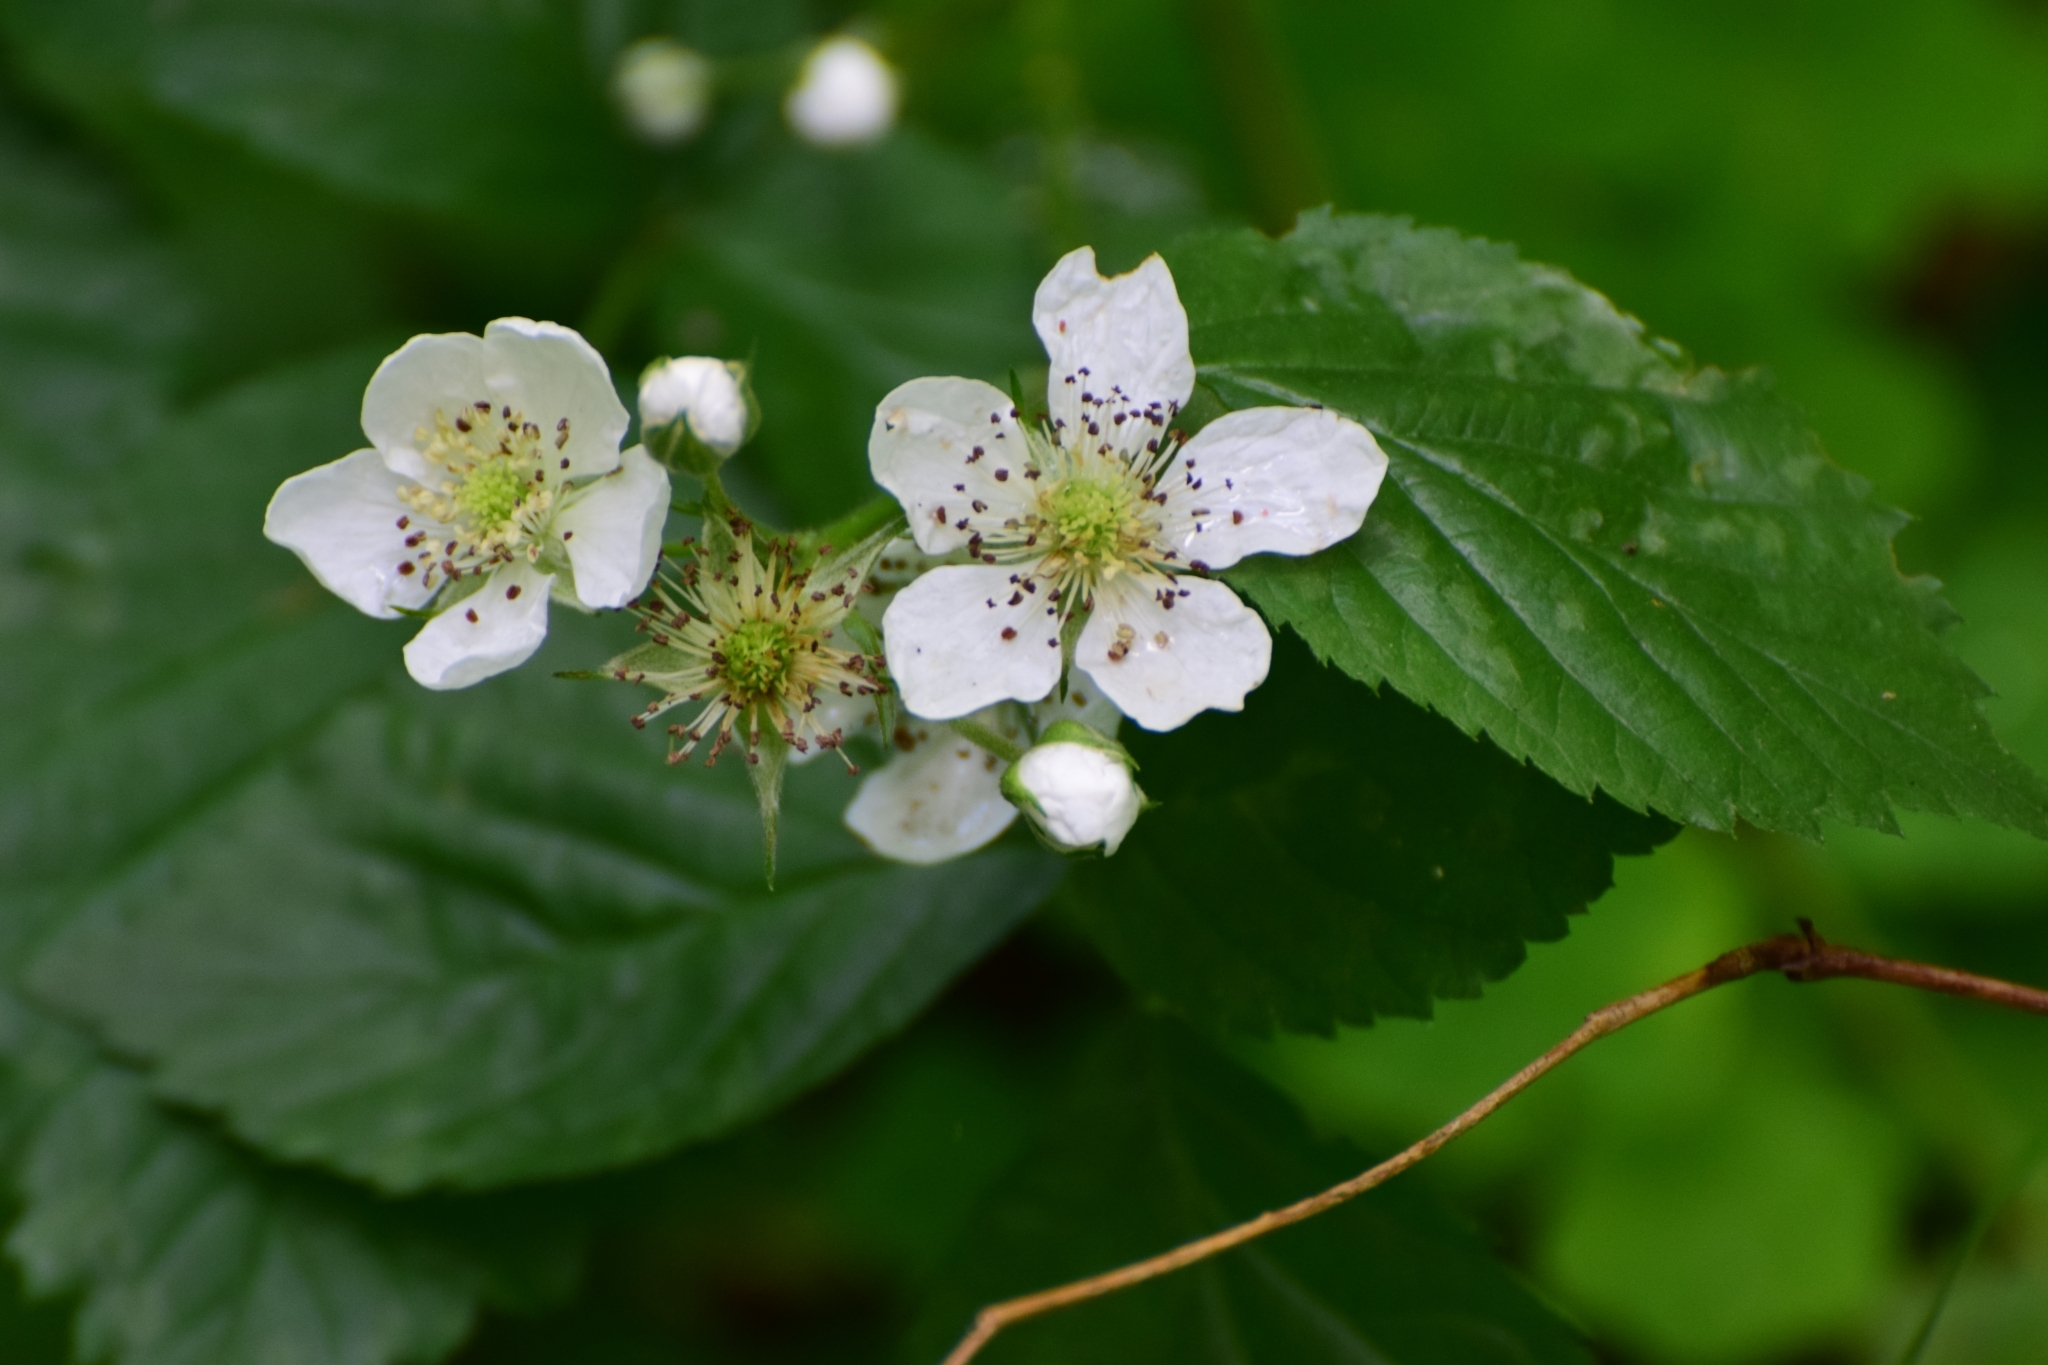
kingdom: Plantae
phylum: Tracheophyta
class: Magnoliopsida
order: Rosales
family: Rosaceae
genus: Rubus
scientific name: Rubus polonicus
